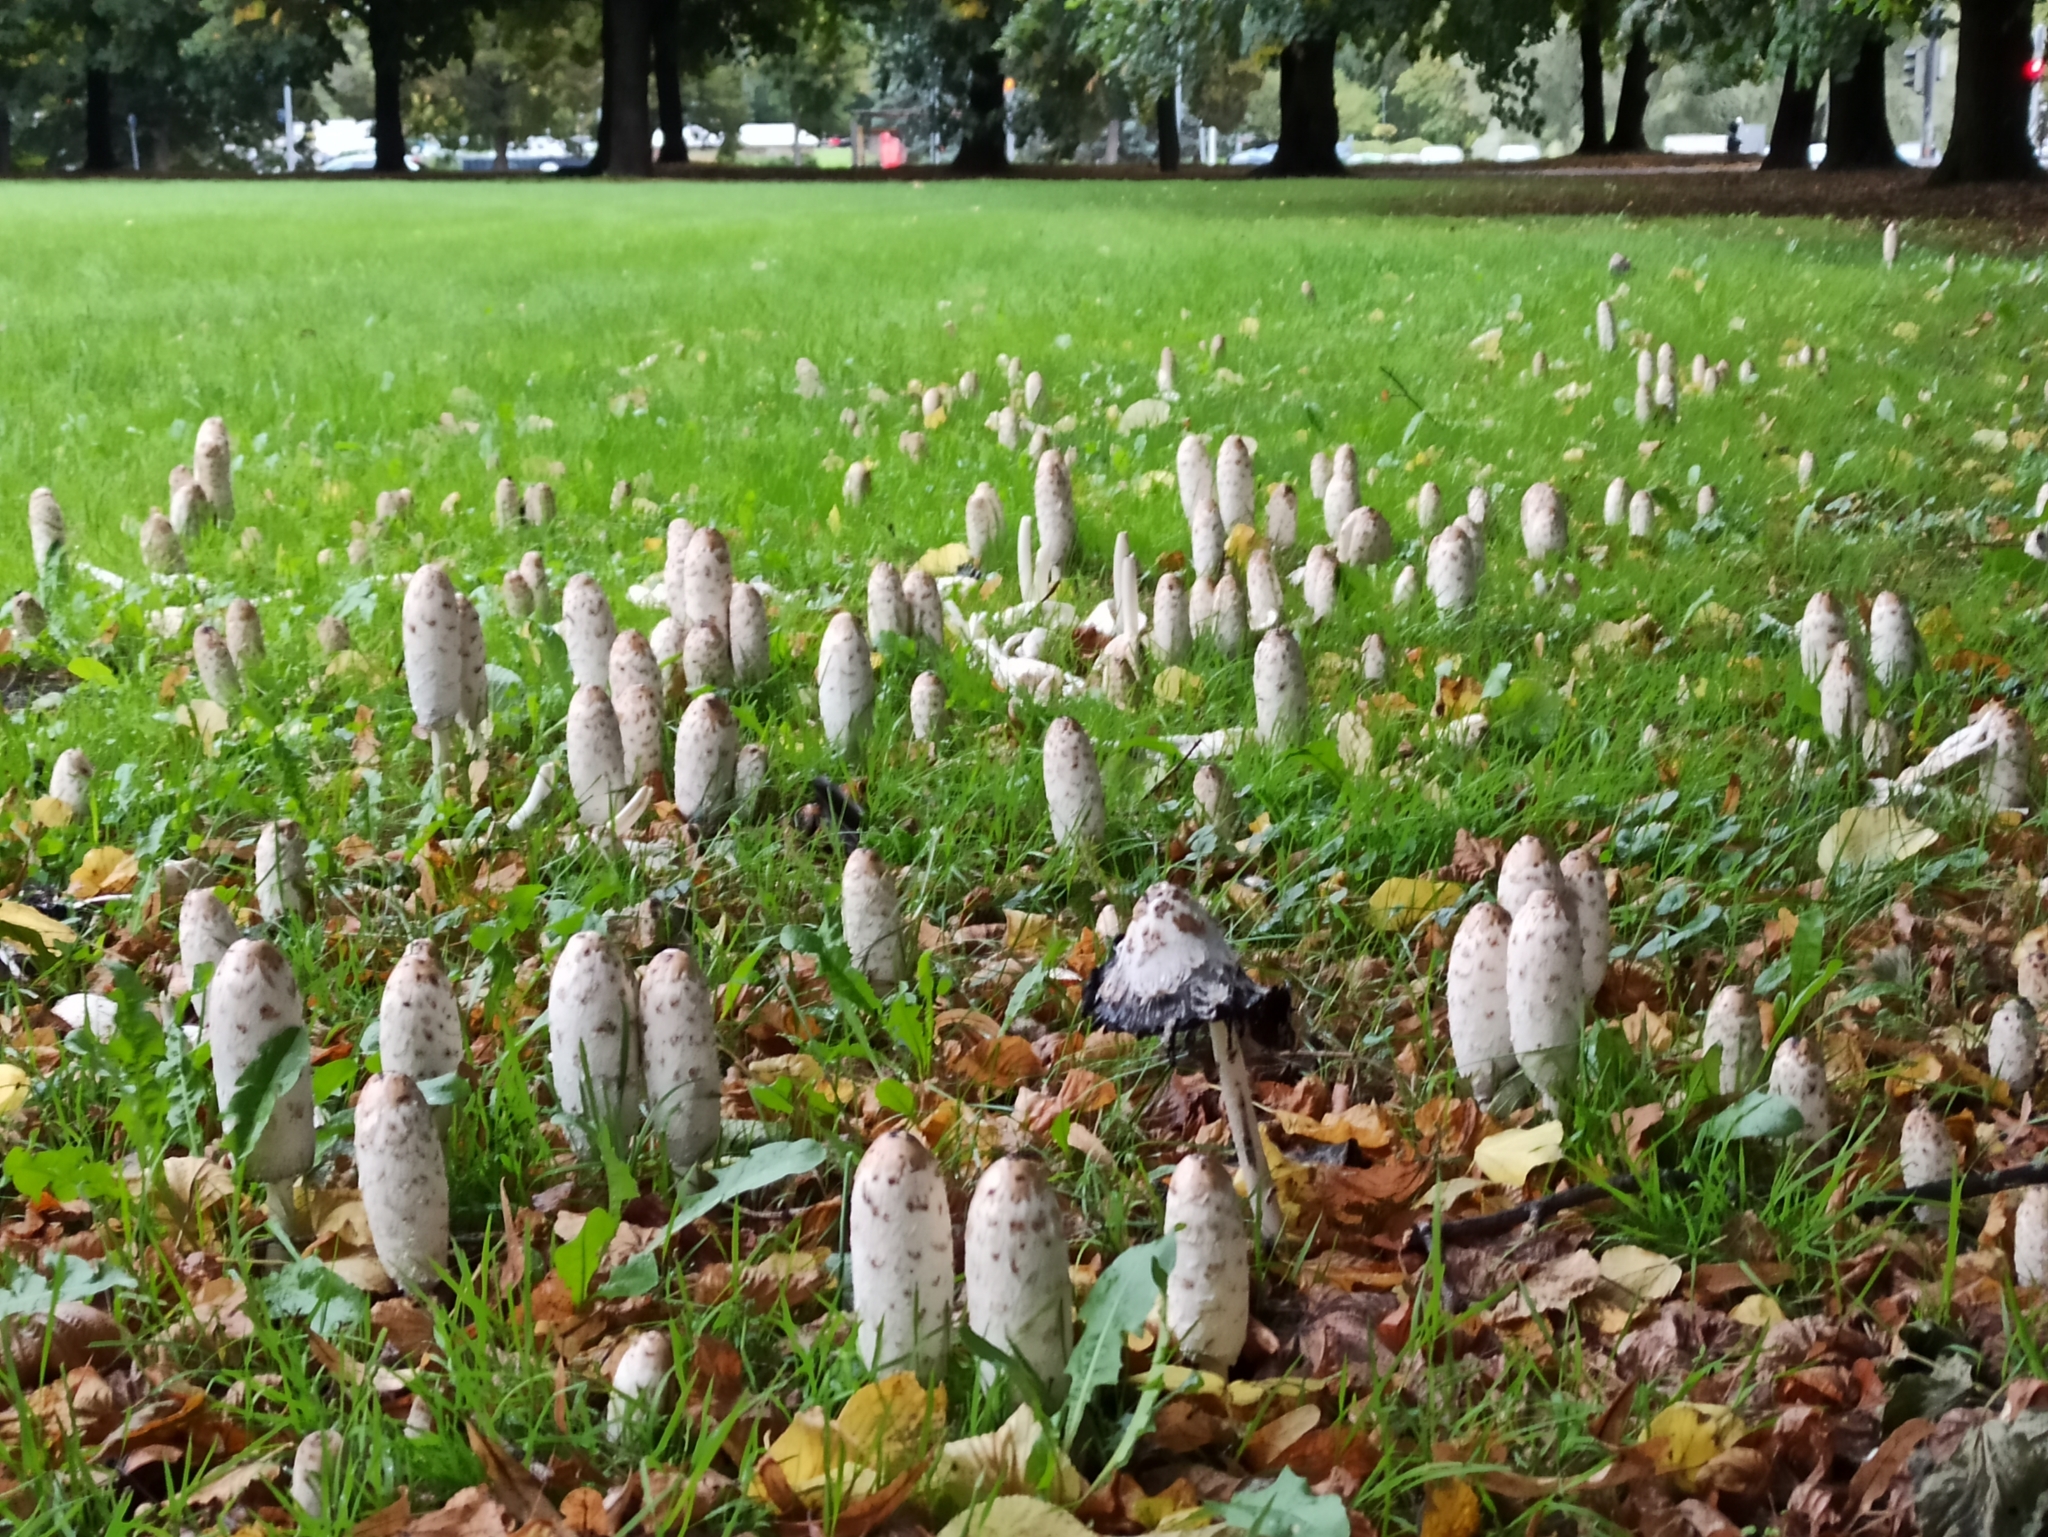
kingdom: Fungi
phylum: Basidiomycota
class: Agaricomycetes
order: Agaricales
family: Agaricaceae
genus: Coprinus
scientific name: Coprinus comatus
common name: Lawyer's wig
